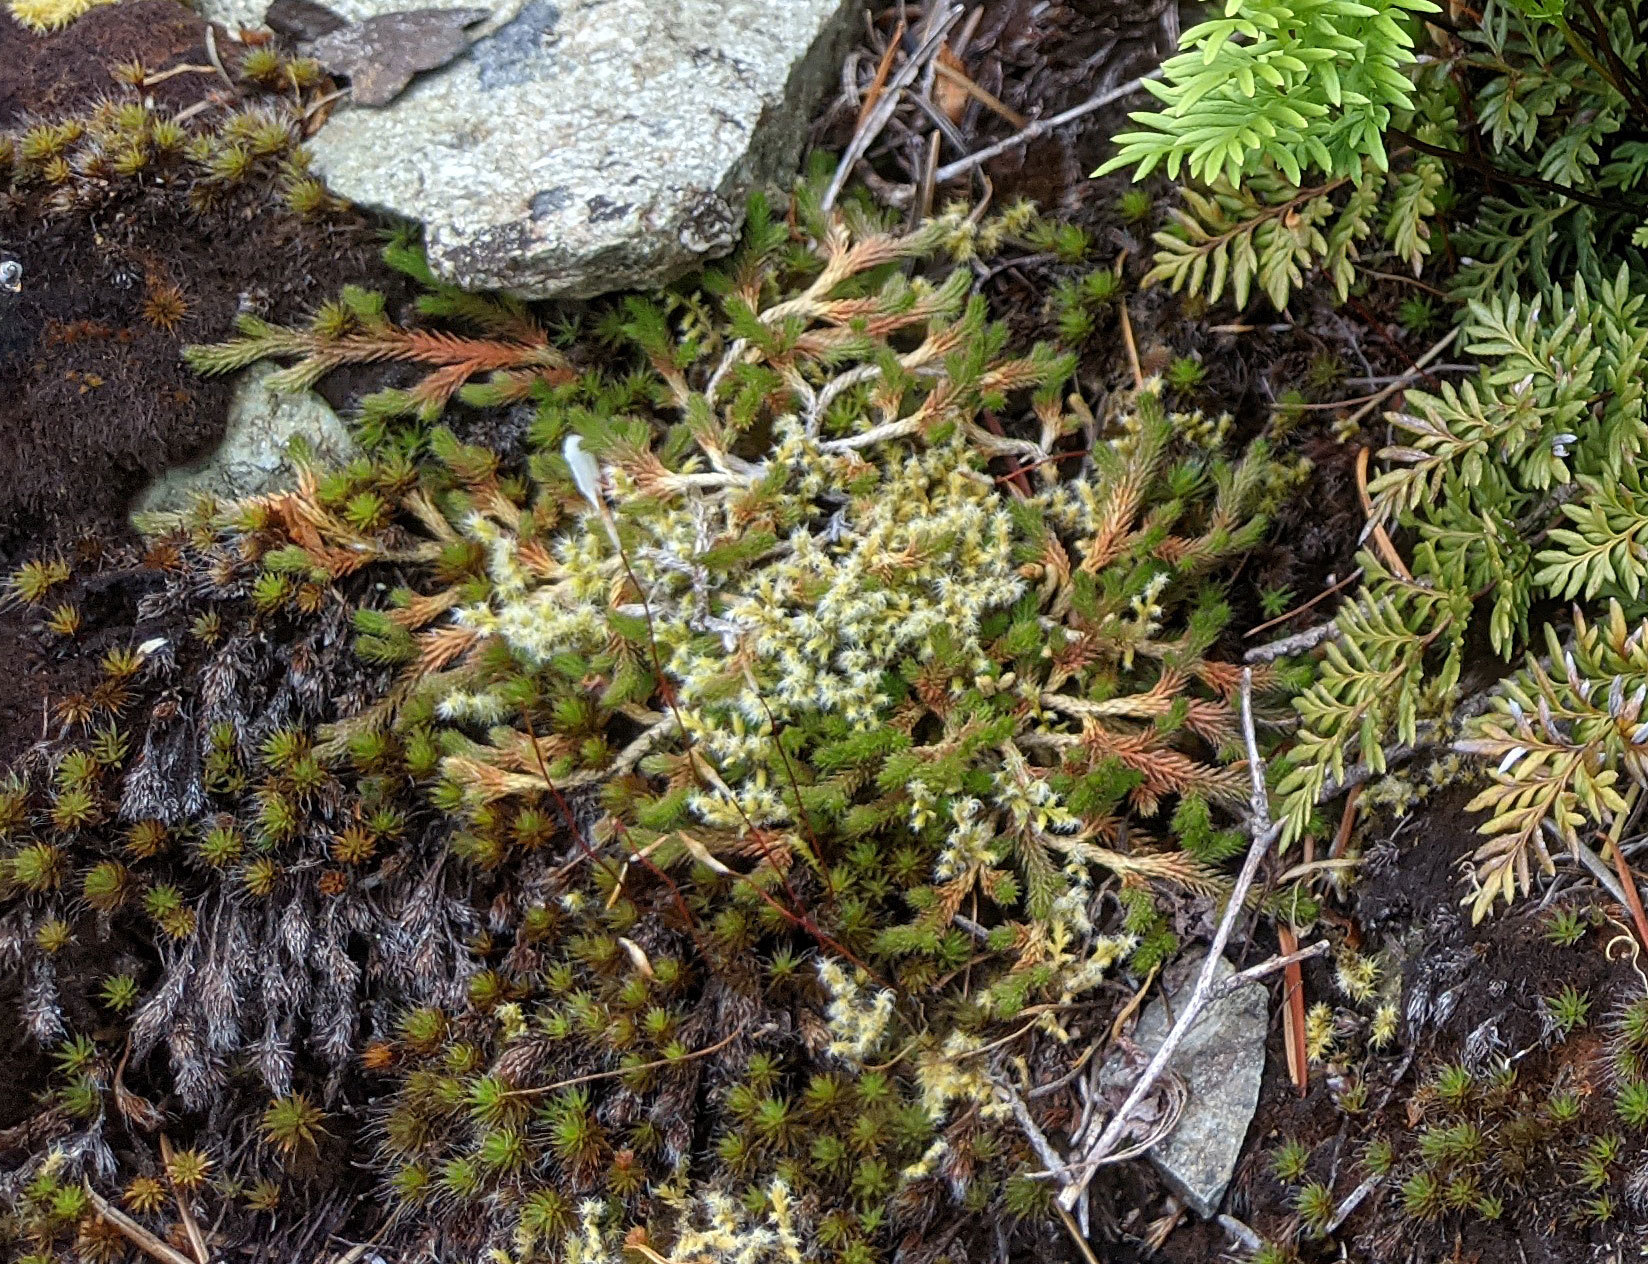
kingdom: Plantae
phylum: Tracheophyta
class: Lycopodiopsida
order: Selaginellales
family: Selaginellaceae
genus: Selaginella
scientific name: Selaginella wallacei
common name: Wallace's selaginella
